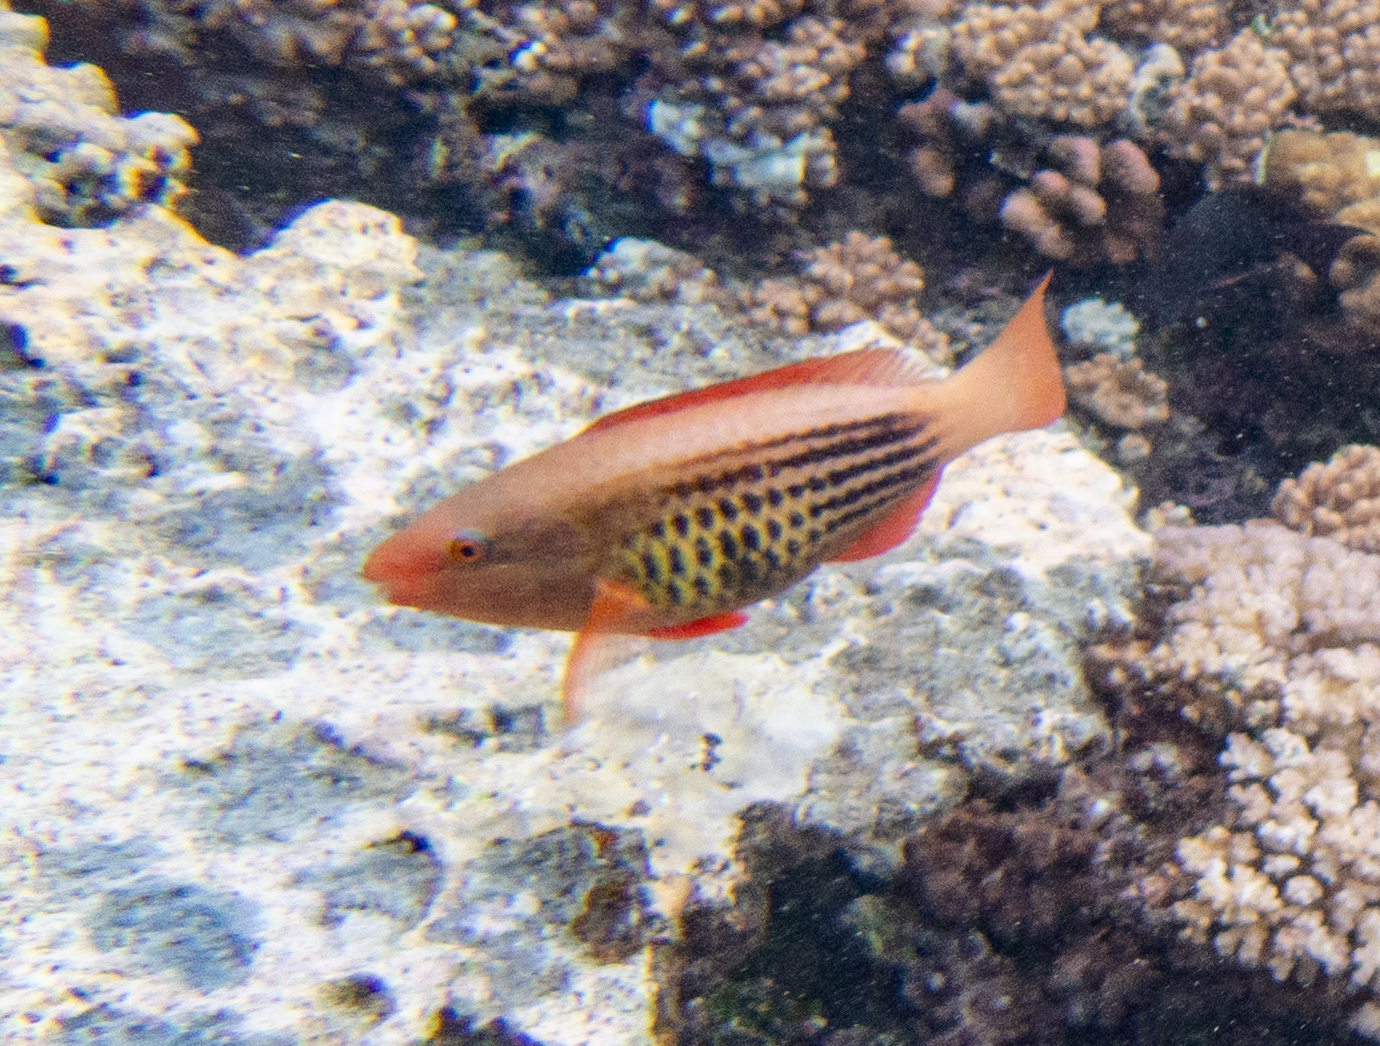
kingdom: Animalia
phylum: Chordata
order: Perciformes
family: Scaridae
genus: Scarus
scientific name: Scarus frenatus
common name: Bridled parrotfish
